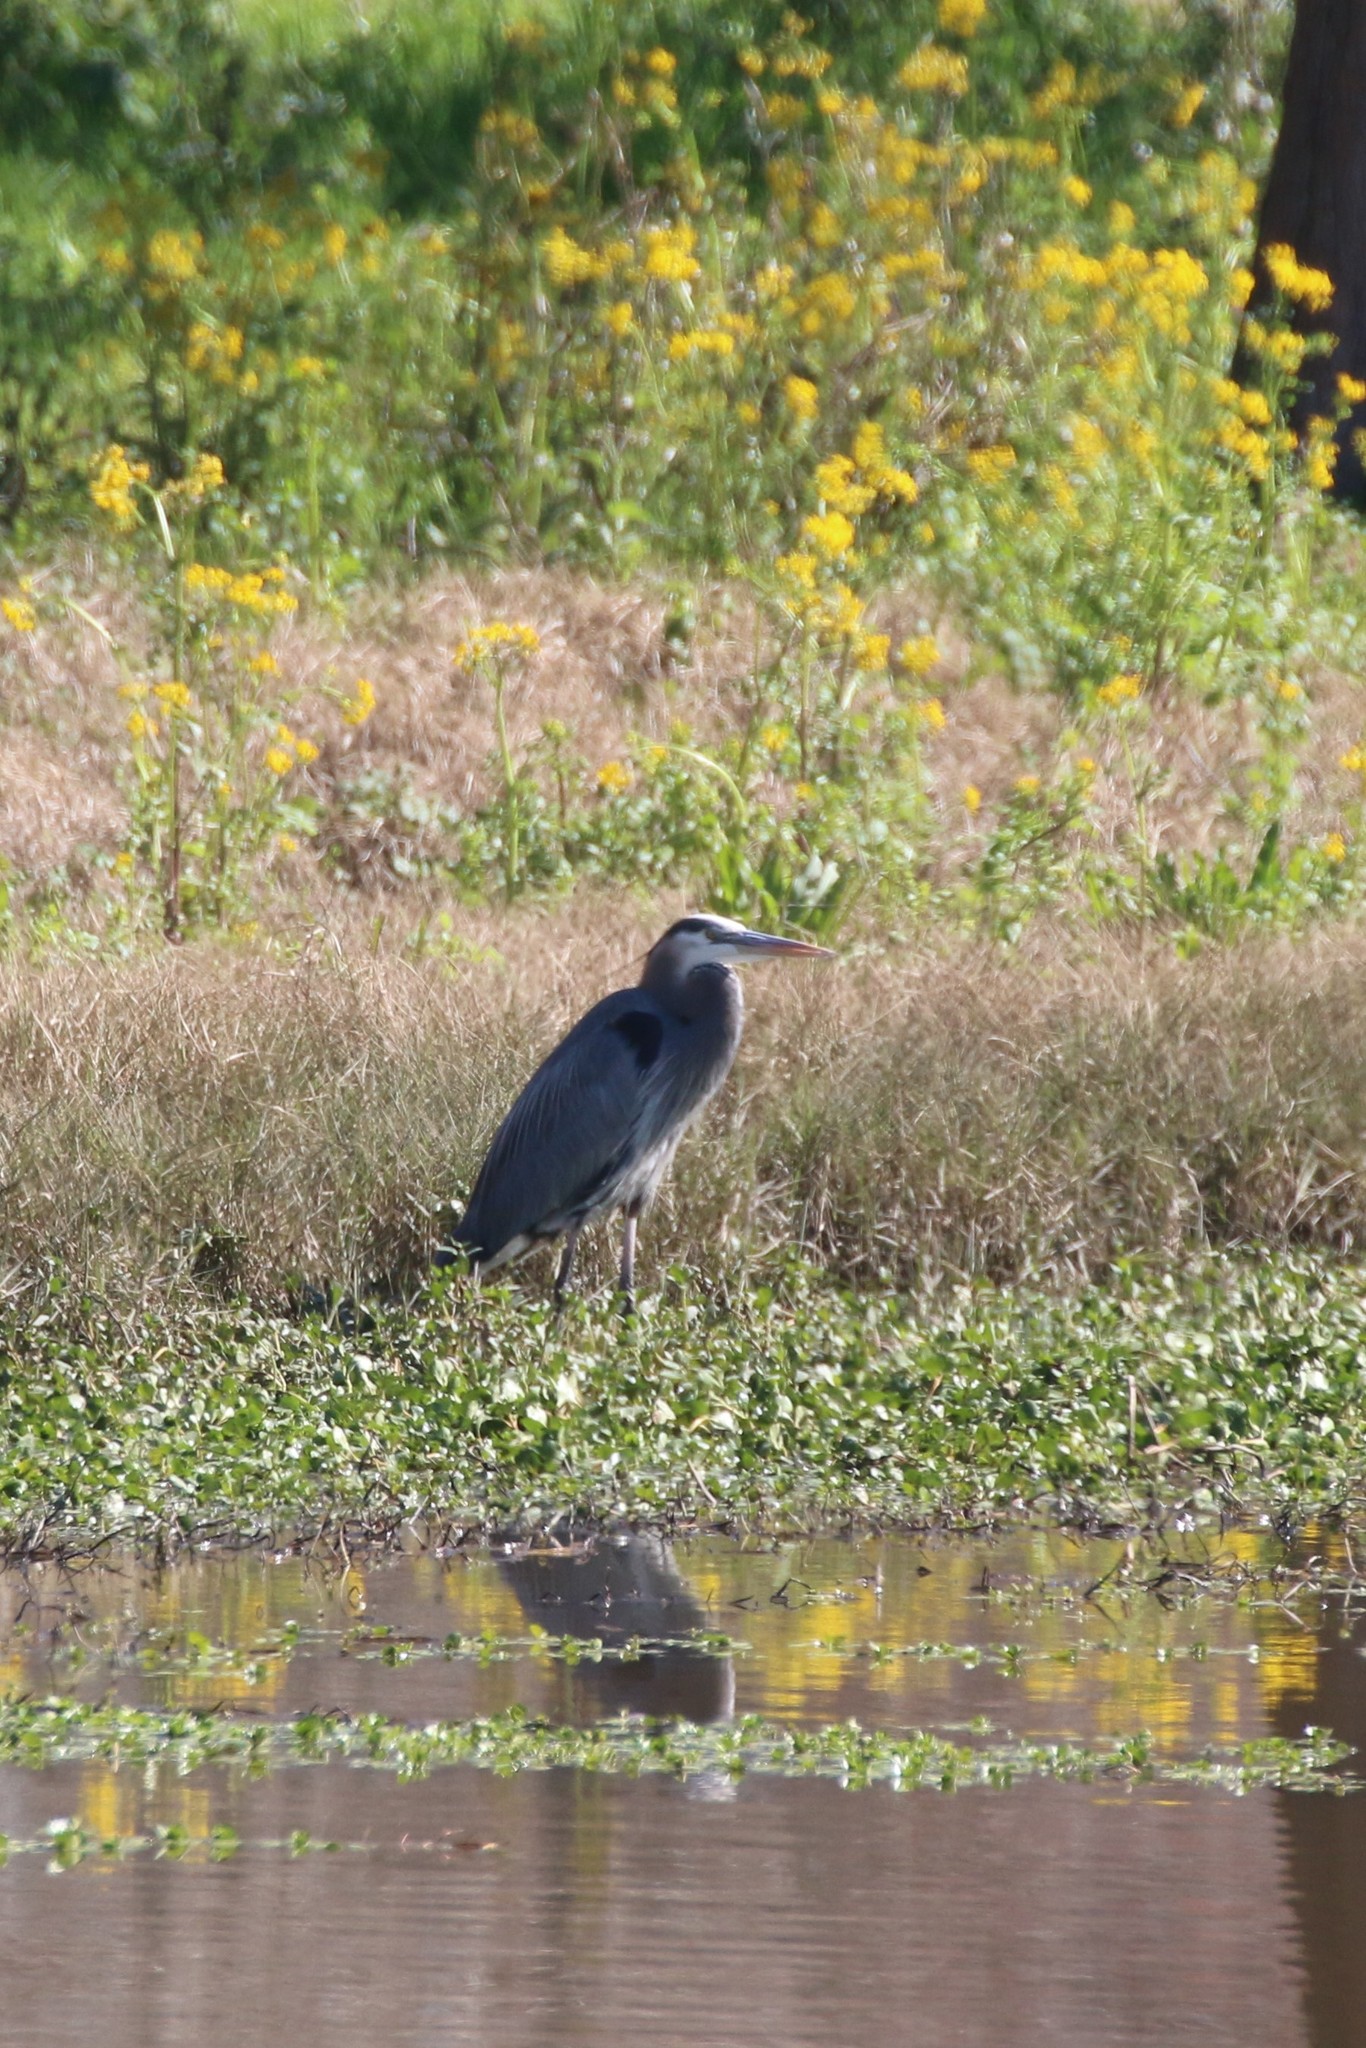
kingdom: Animalia
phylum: Chordata
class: Aves
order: Pelecaniformes
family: Ardeidae
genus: Ardea
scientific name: Ardea herodias
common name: Great blue heron
